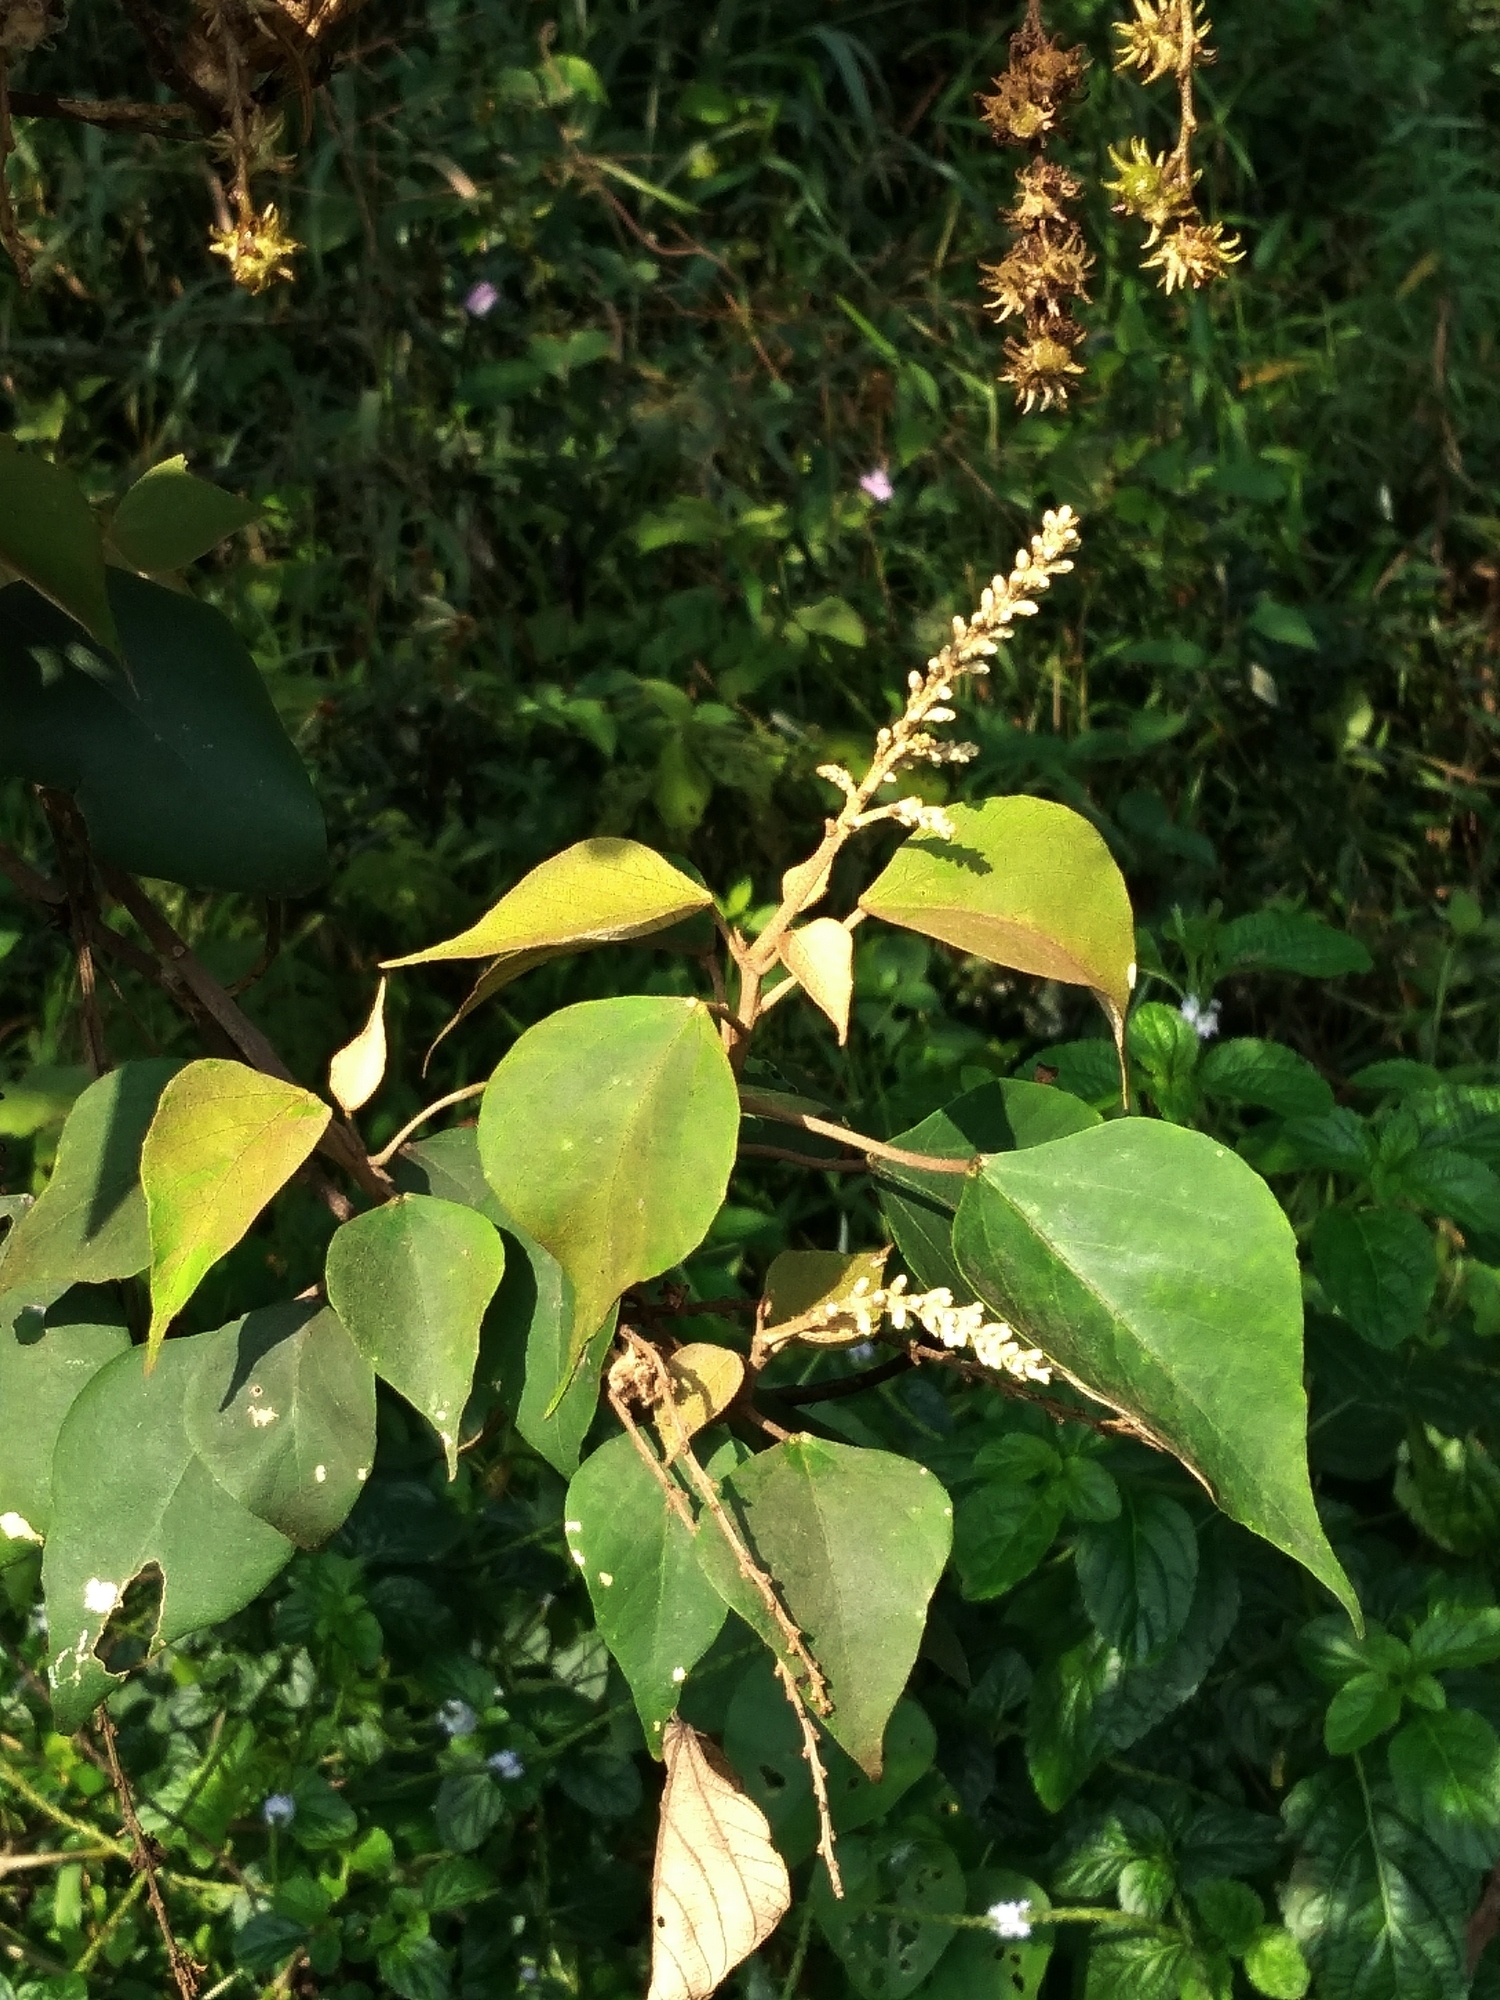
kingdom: Plantae
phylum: Tracheophyta
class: Magnoliopsida
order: Malpighiales
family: Euphorbiaceae
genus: Mallotus
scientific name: Mallotus paniculatus
